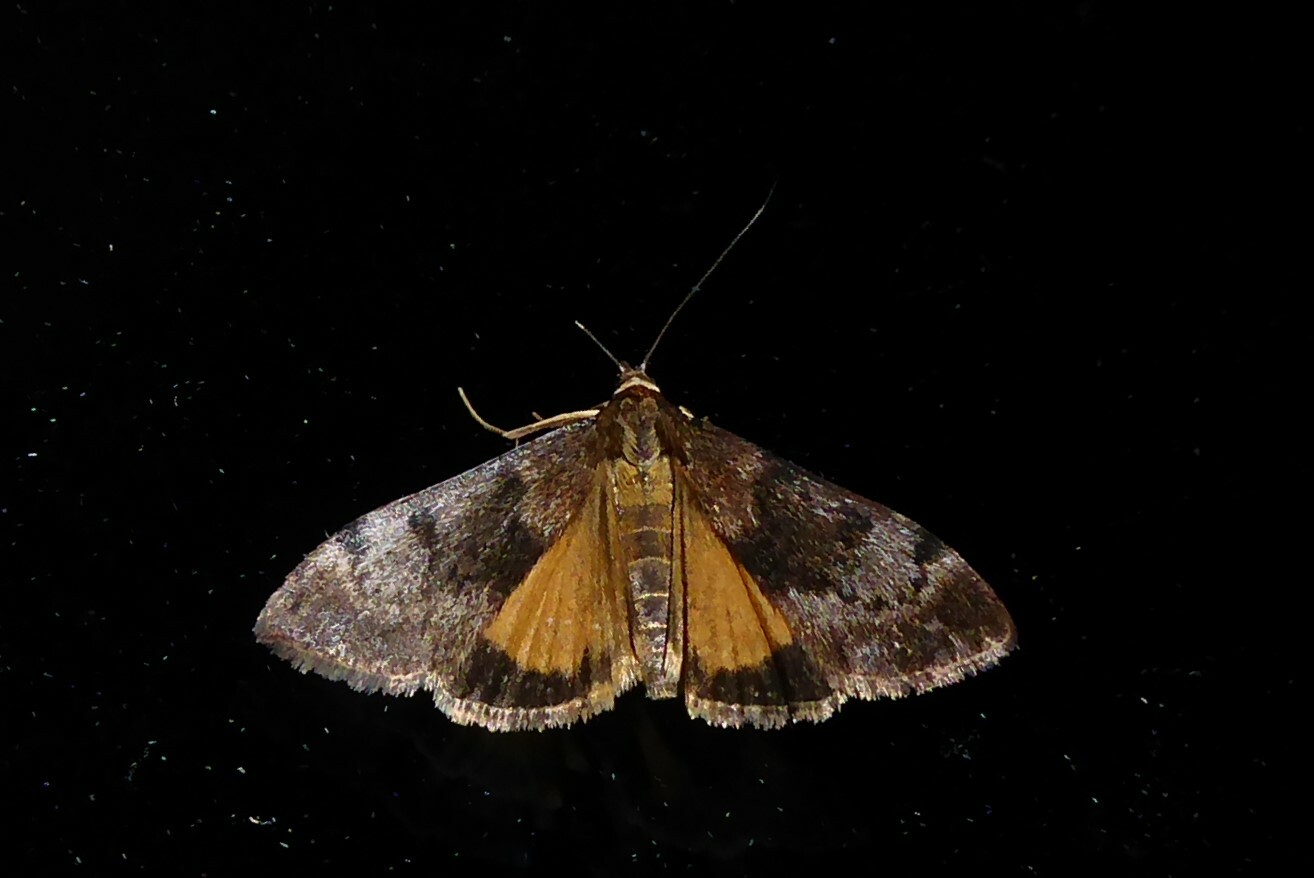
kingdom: Animalia
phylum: Arthropoda
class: Insecta
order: Lepidoptera
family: Crambidae
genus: Uresiphita
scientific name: Uresiphita
